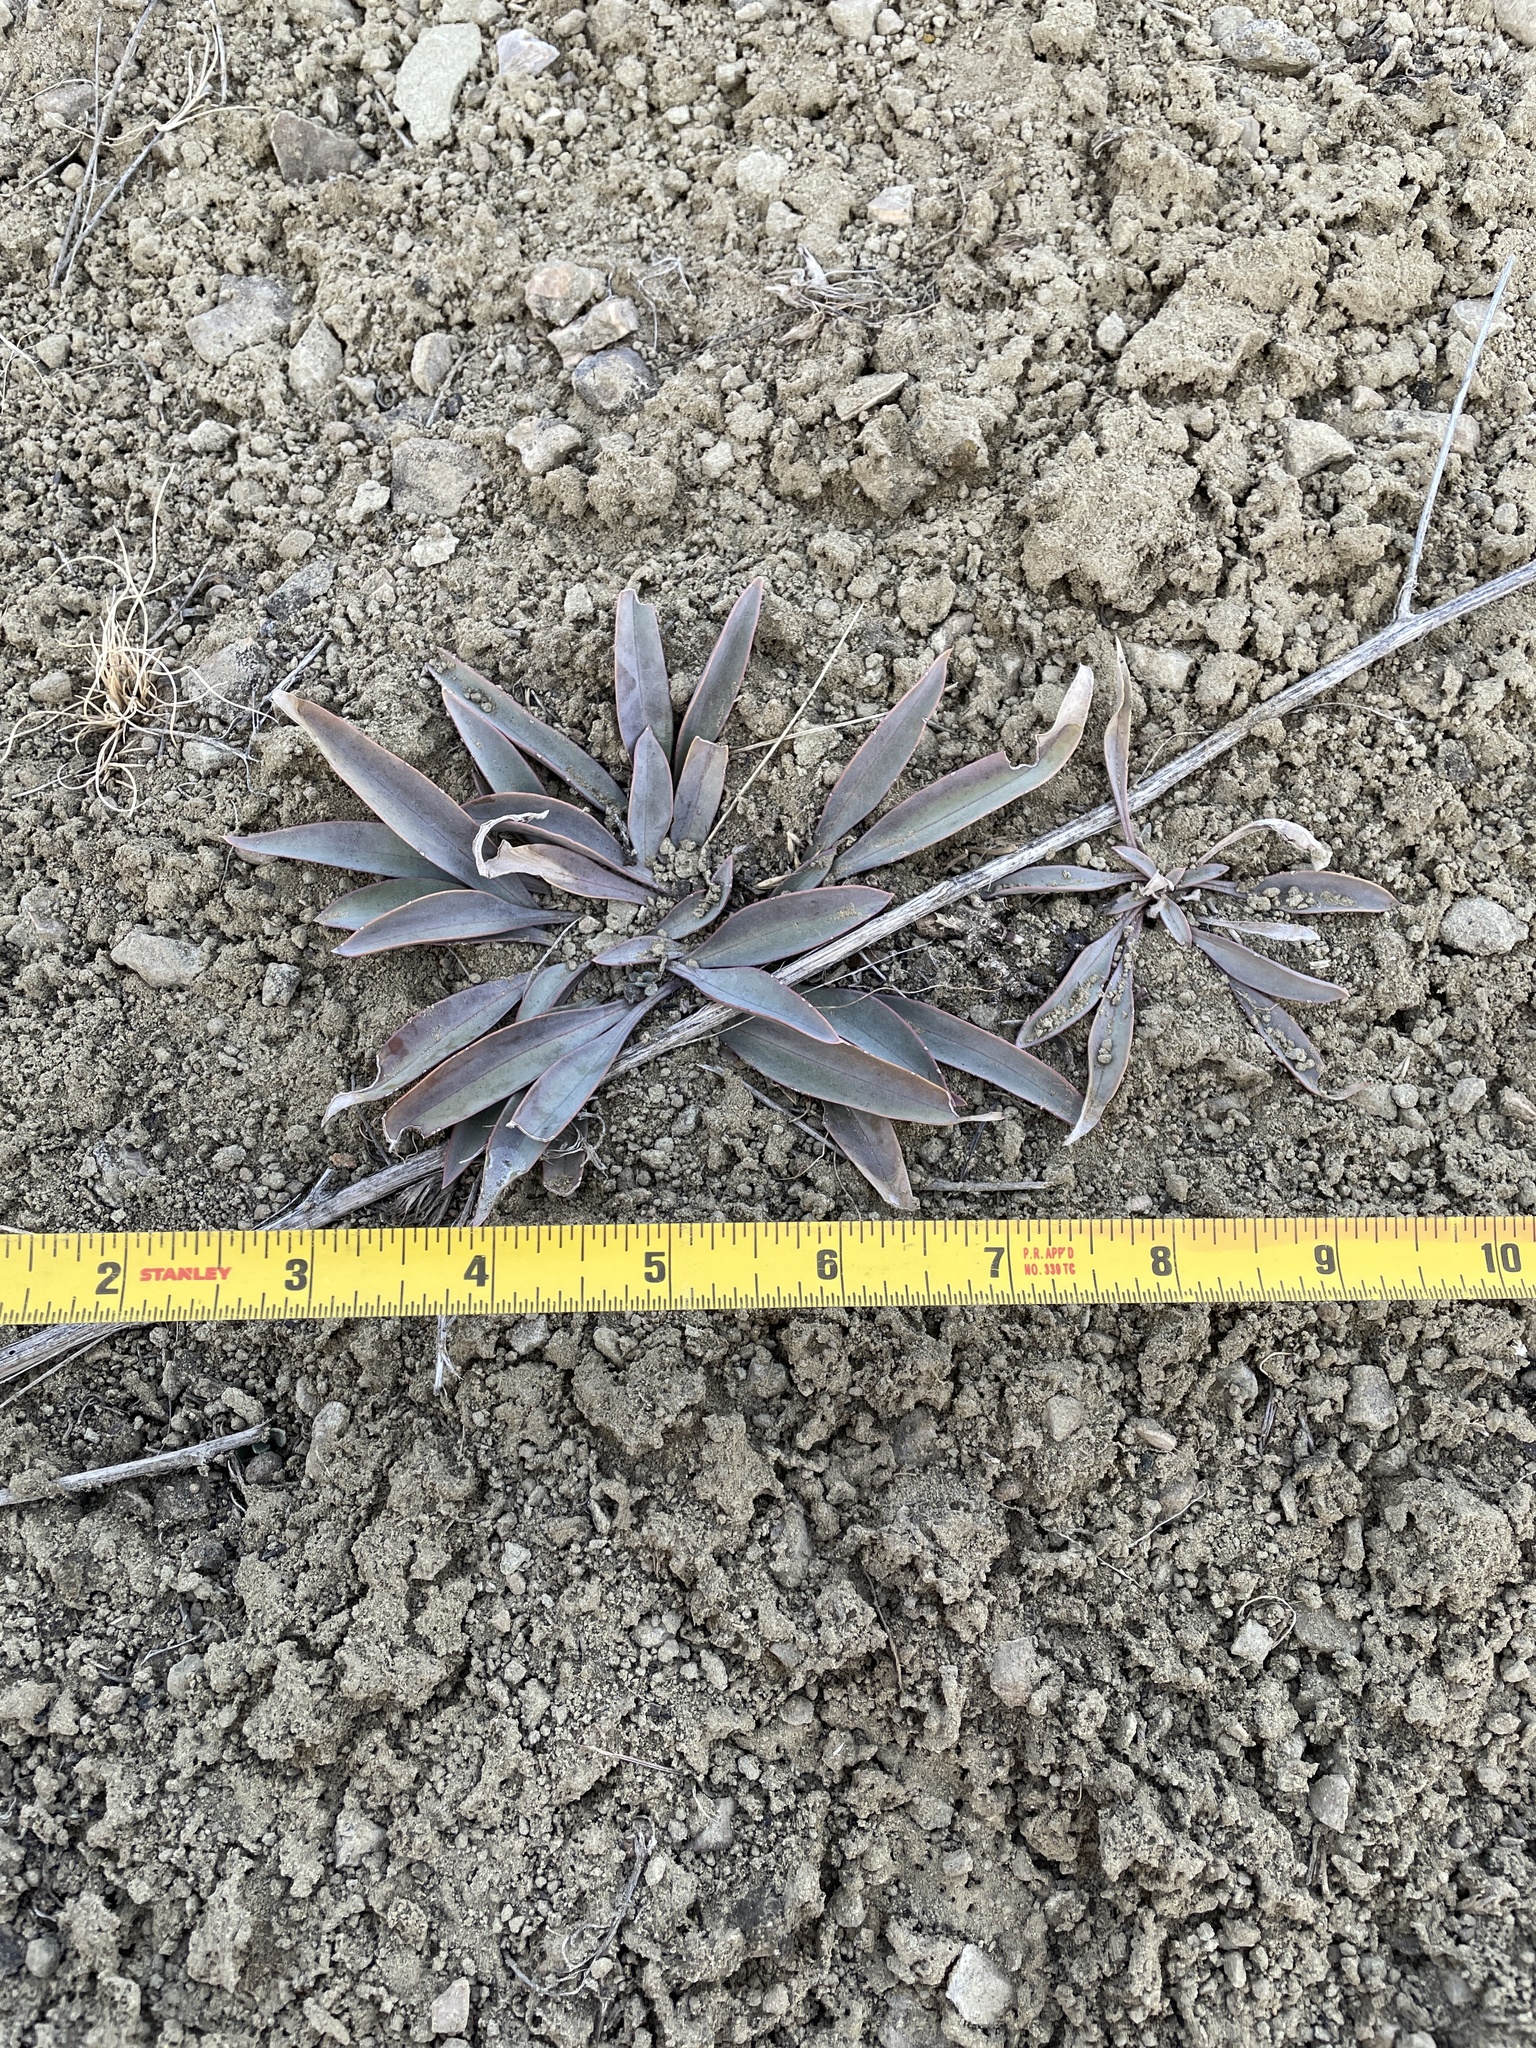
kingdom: Plantae
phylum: Tracheophyta
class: Magnoliopsida
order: Lamiales
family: Plantaginaceae
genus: Penstemon
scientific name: Penstemon secundiflorus
